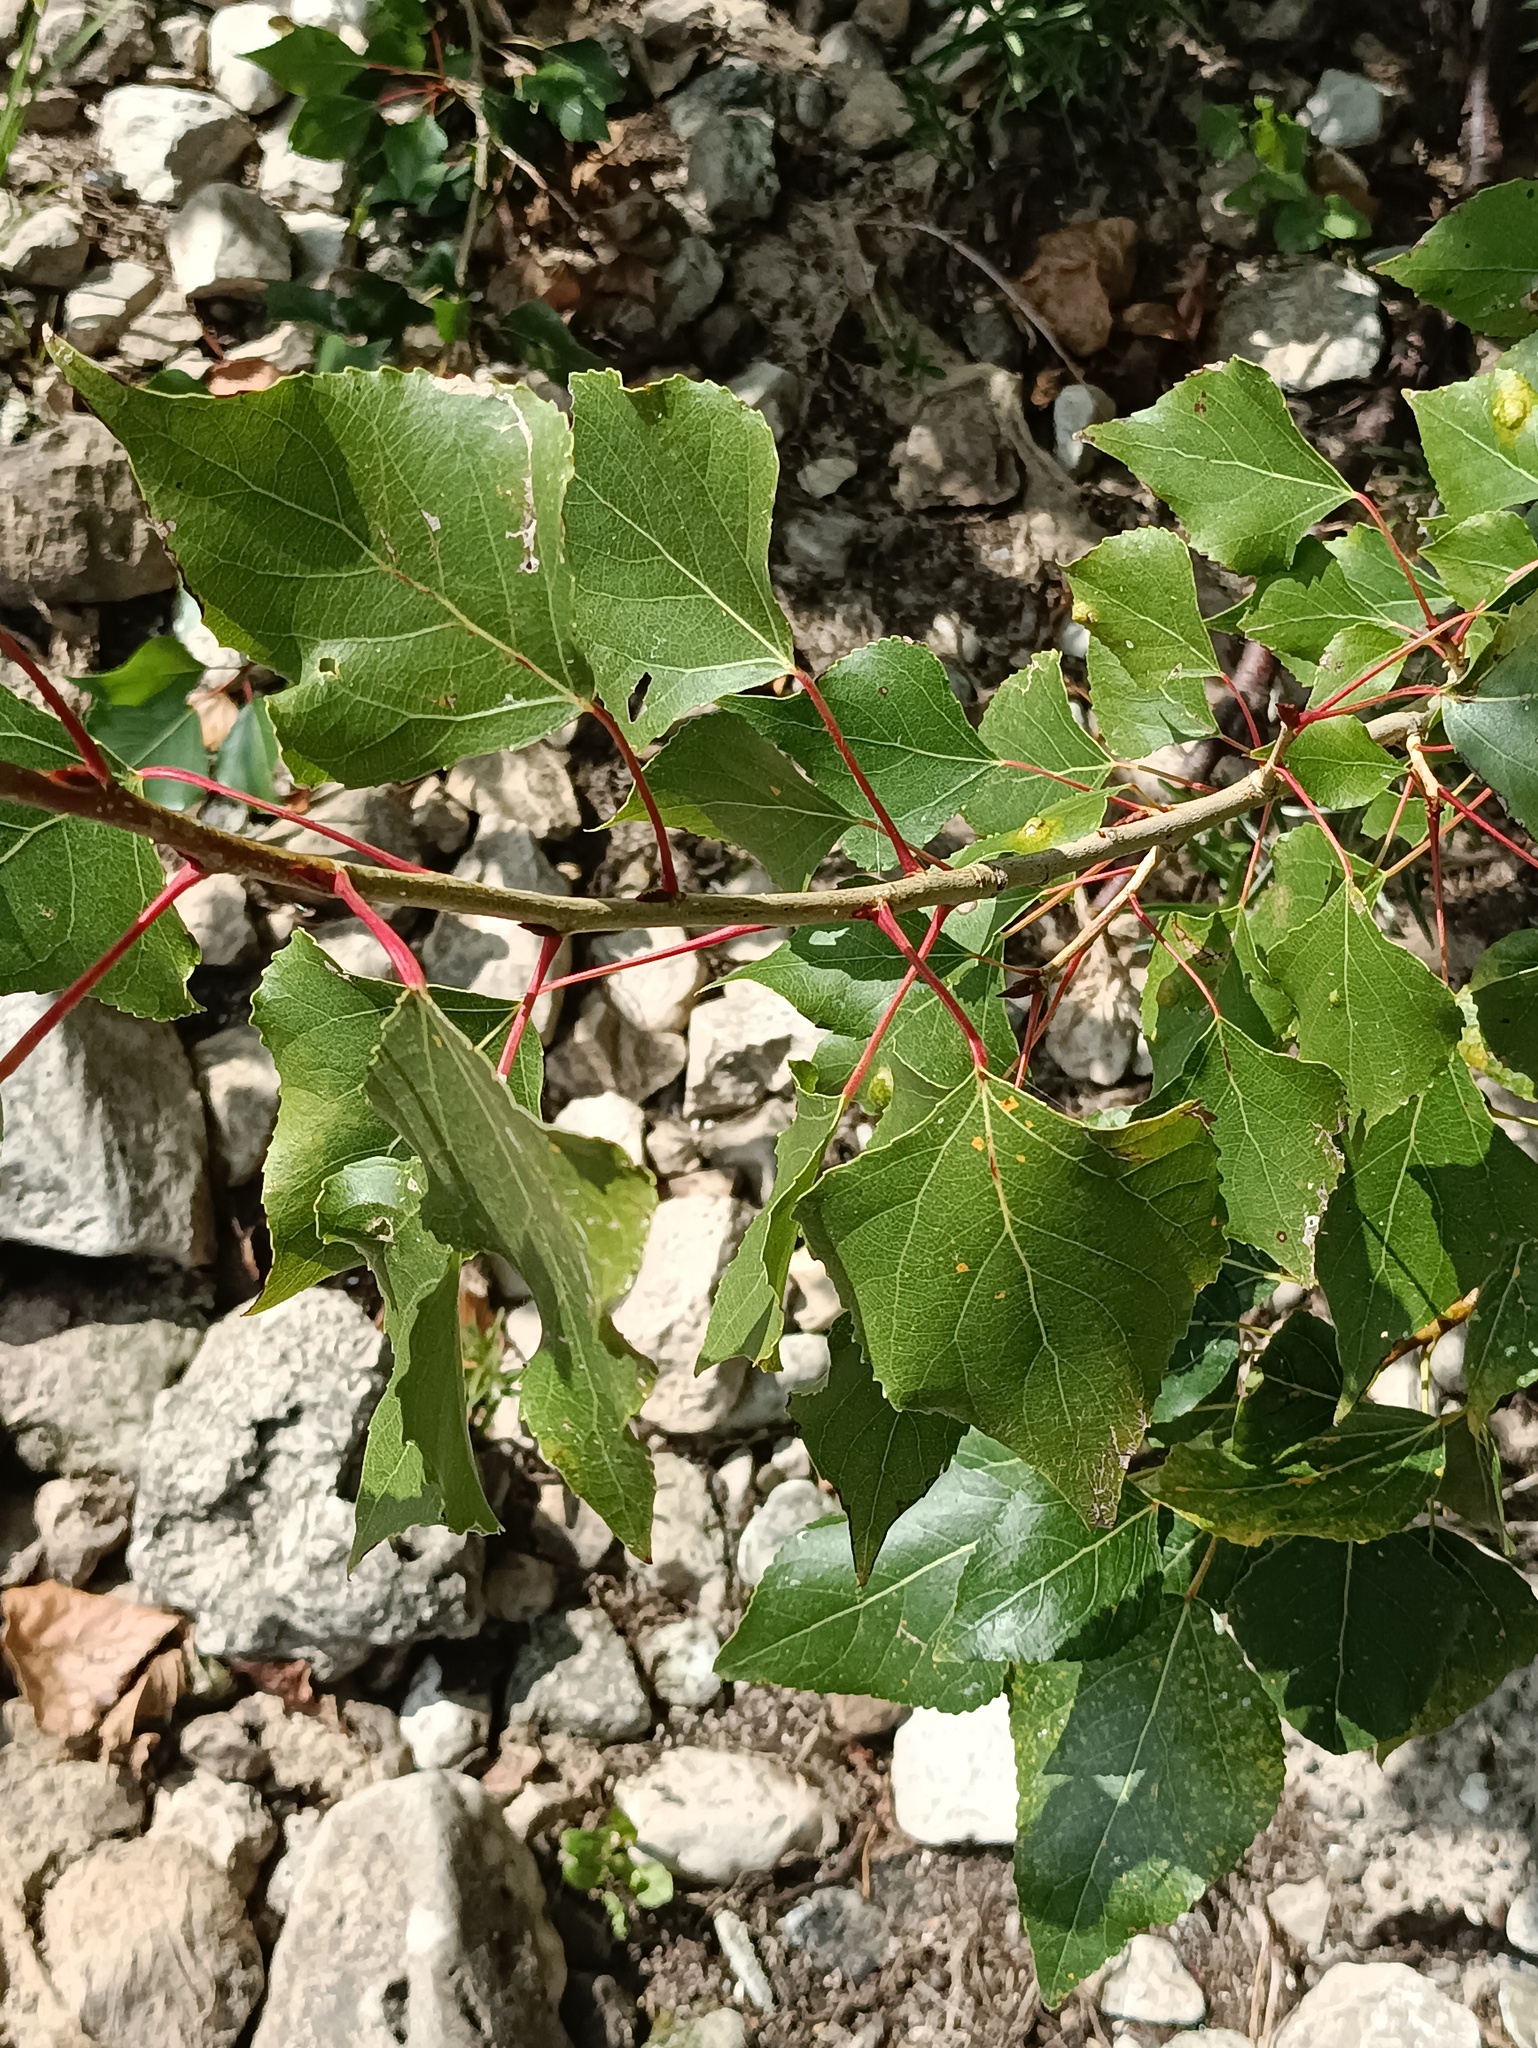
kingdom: Plantae
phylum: Tracheophyta
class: Magnoliopsida
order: Malpighiales
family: Salicaceae
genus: Populus
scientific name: Populus nigra
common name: Black poplar
